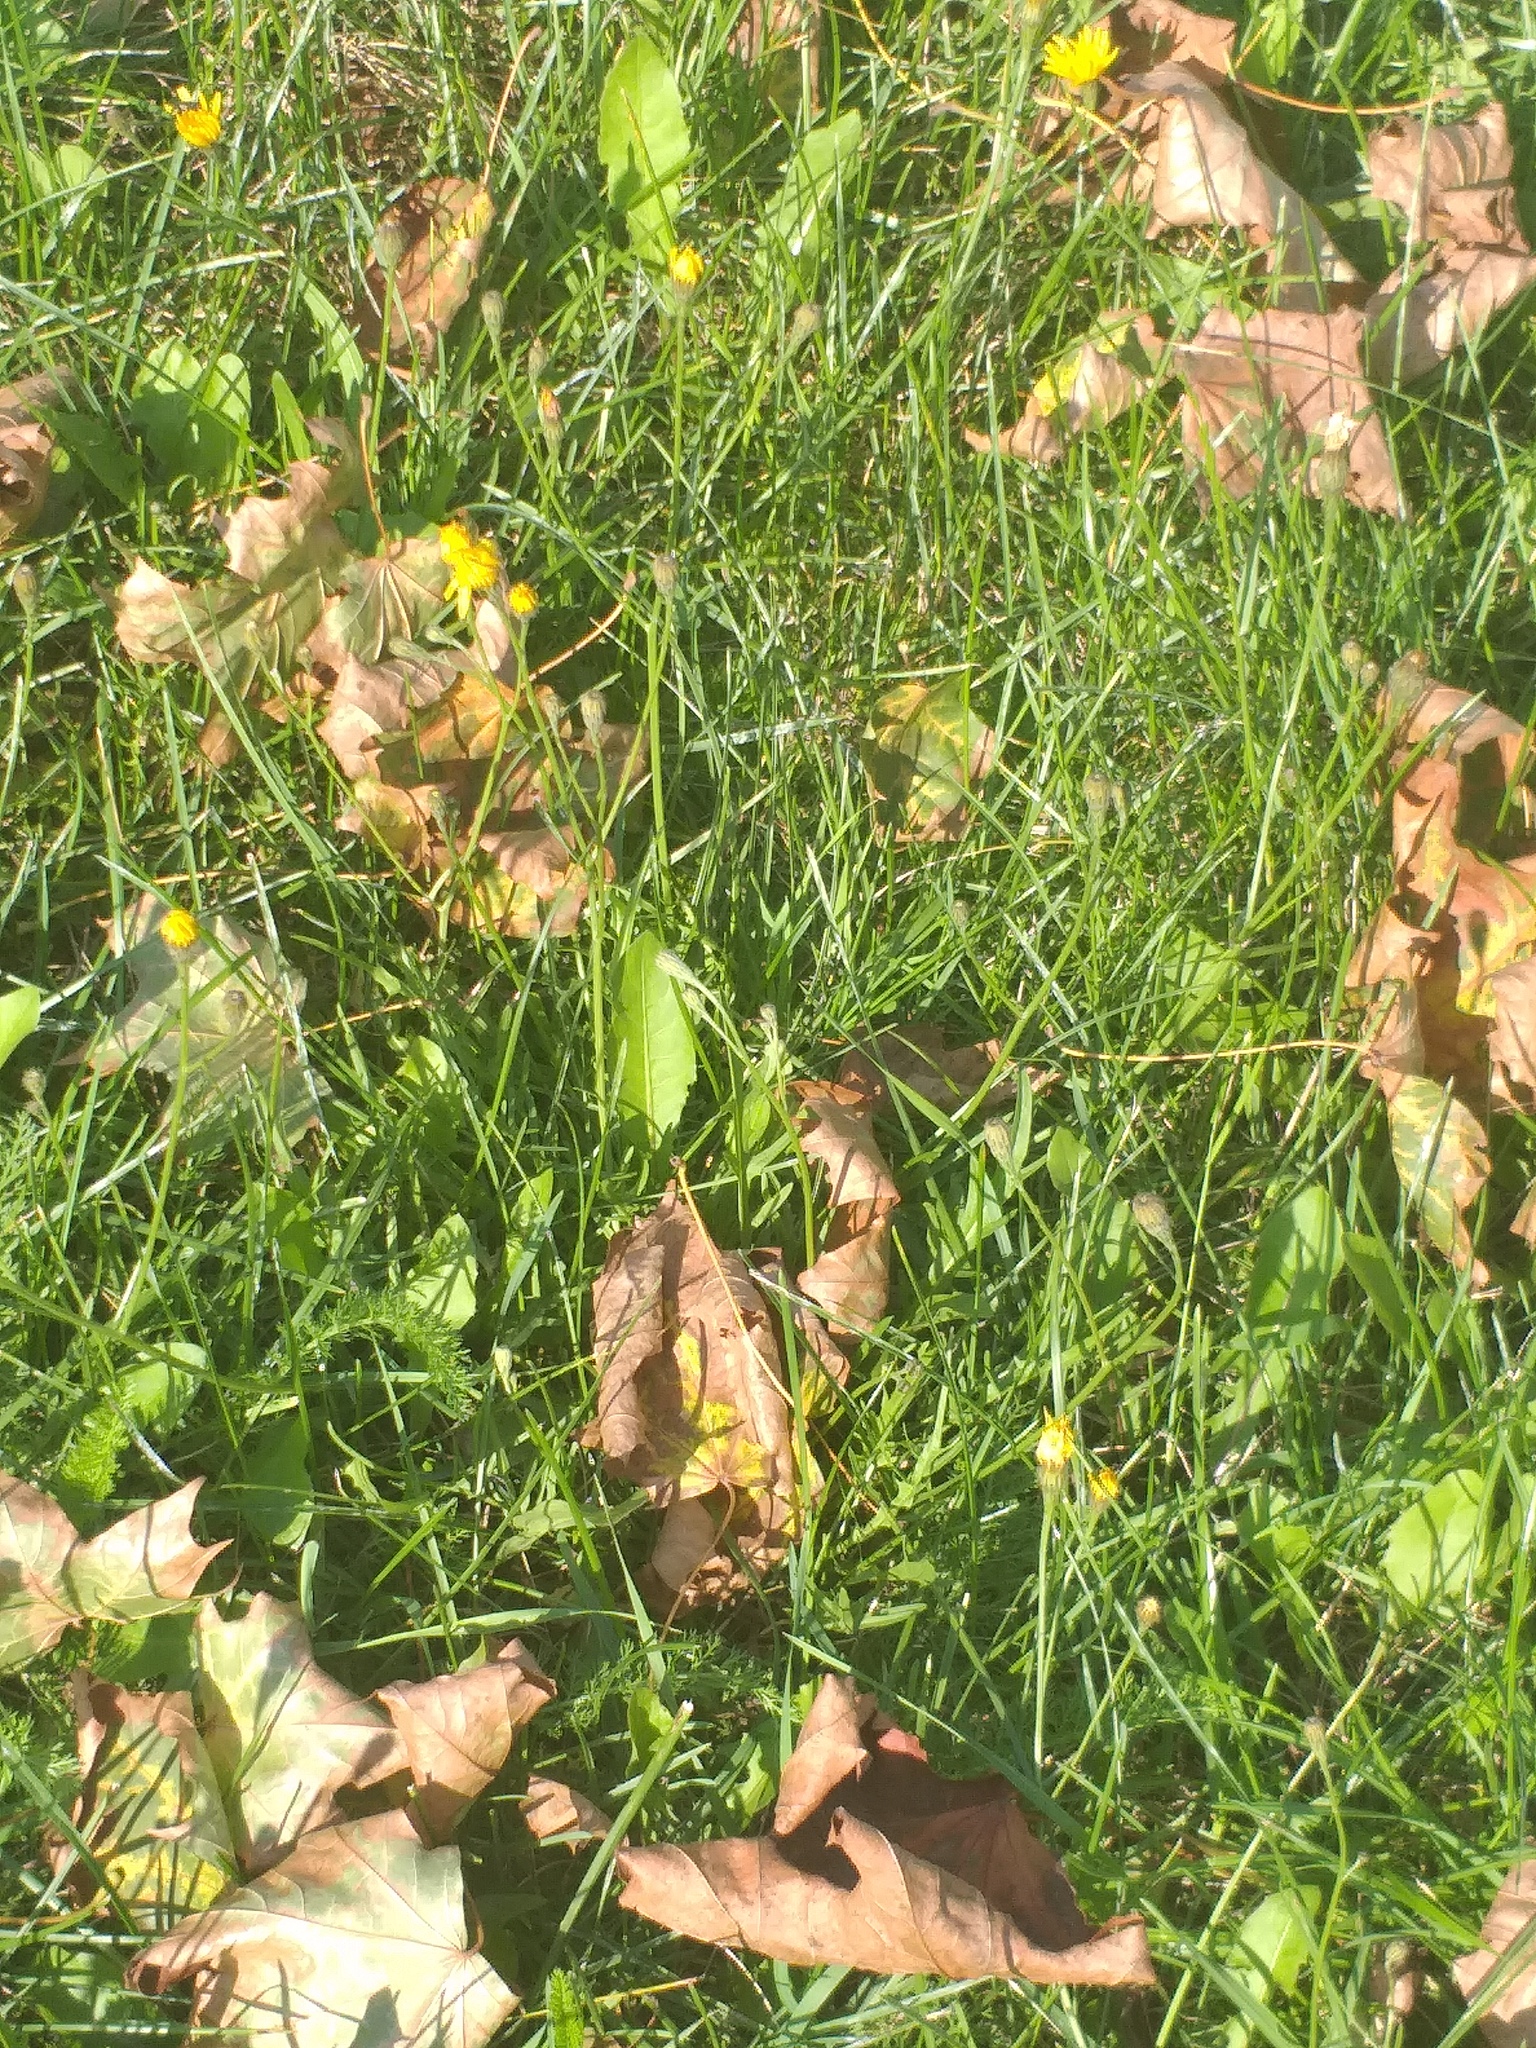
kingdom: Plantae
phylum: Tracheophyta
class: Magnoliopsida
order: Asterales
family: Asteraceae
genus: Scorzoneroides
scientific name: Scorzoneroides autumnalis
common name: Autumn hawkbit
